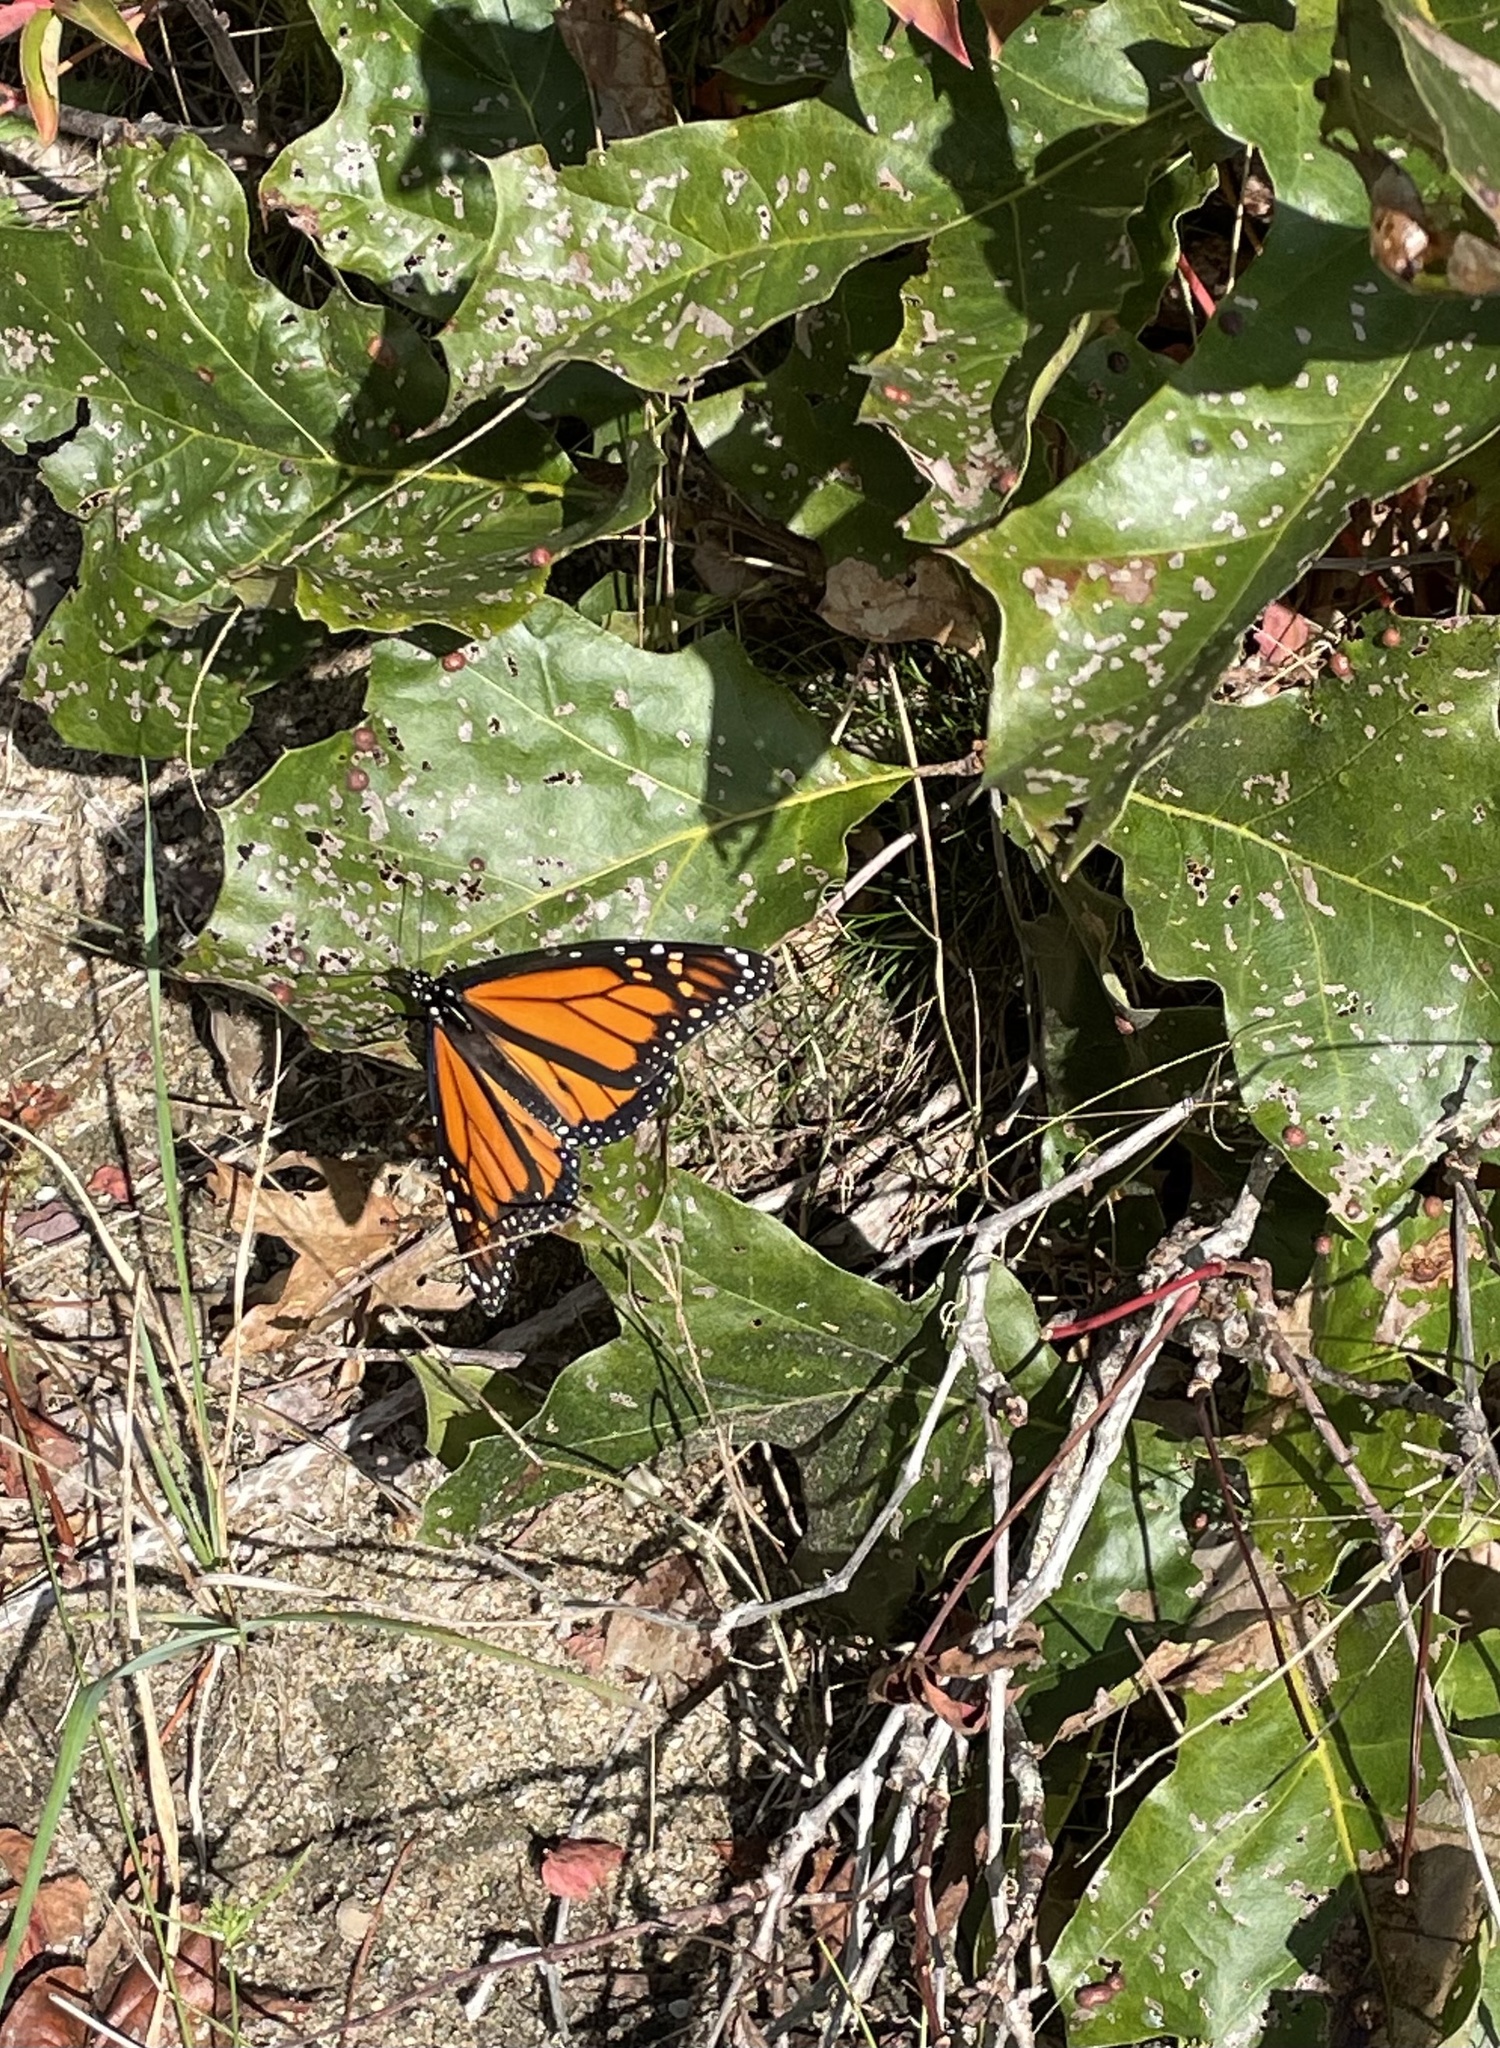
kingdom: Animalia
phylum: Arthropoda
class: Insecta
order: Lepidoptera
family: Nymphalidae
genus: Danaus
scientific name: Danaus plexippus
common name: Monarch
